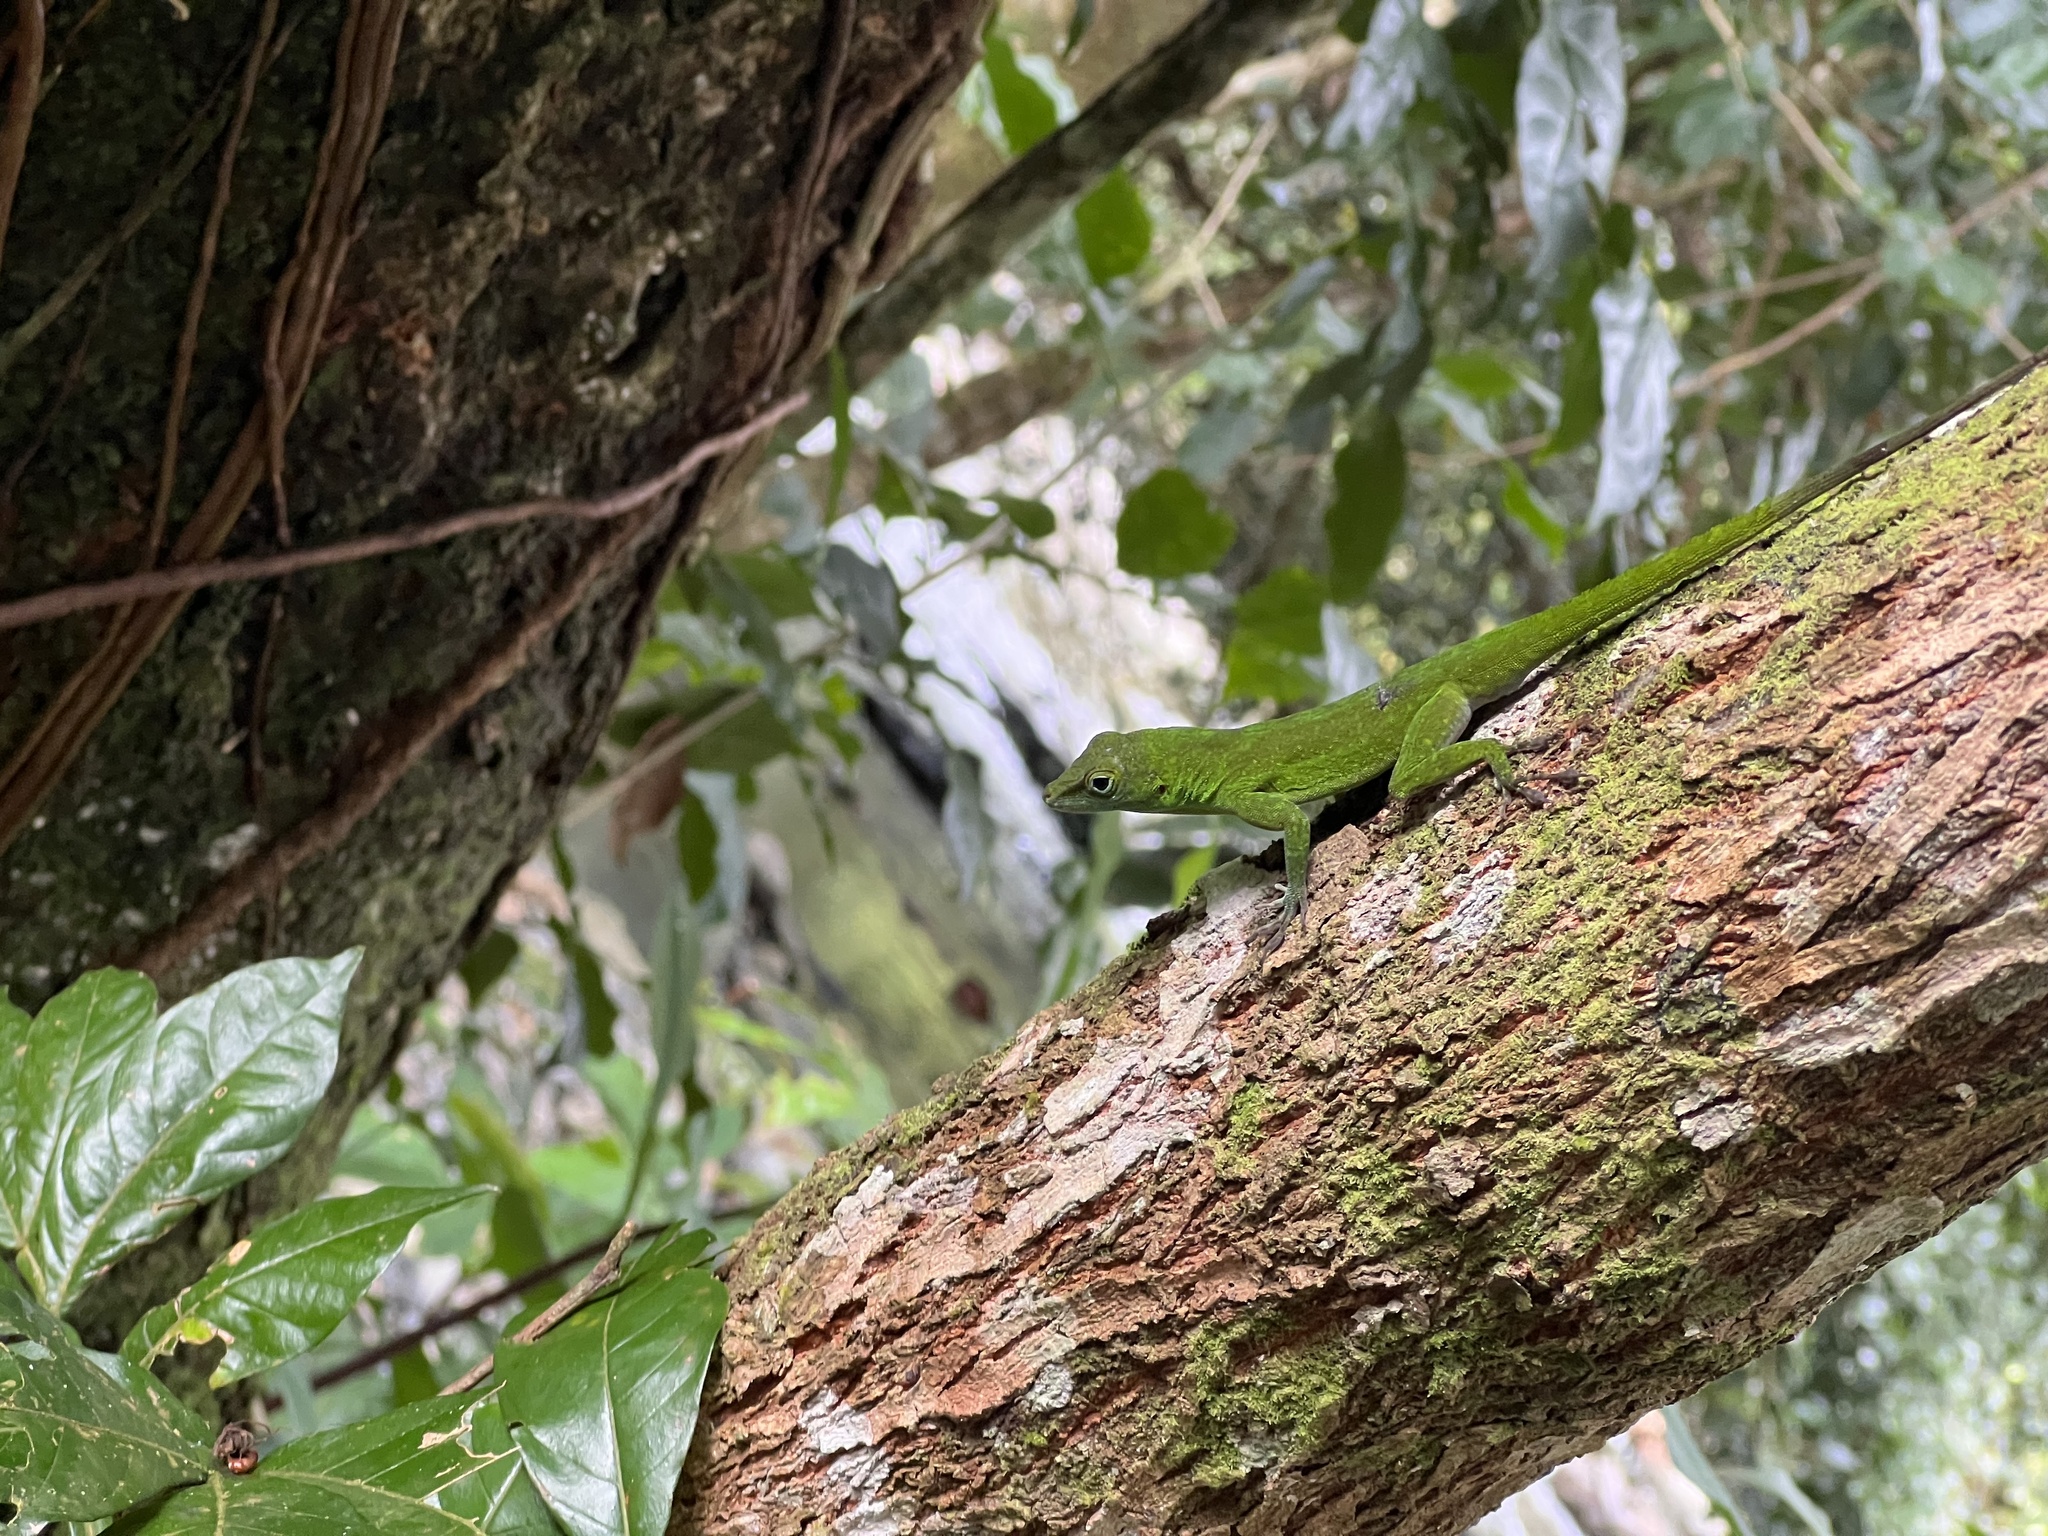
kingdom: Animalia
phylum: Chordata
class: Squamata
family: Dactyloidae
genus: Anolis
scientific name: Anolis evermanni
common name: Emerald anole
